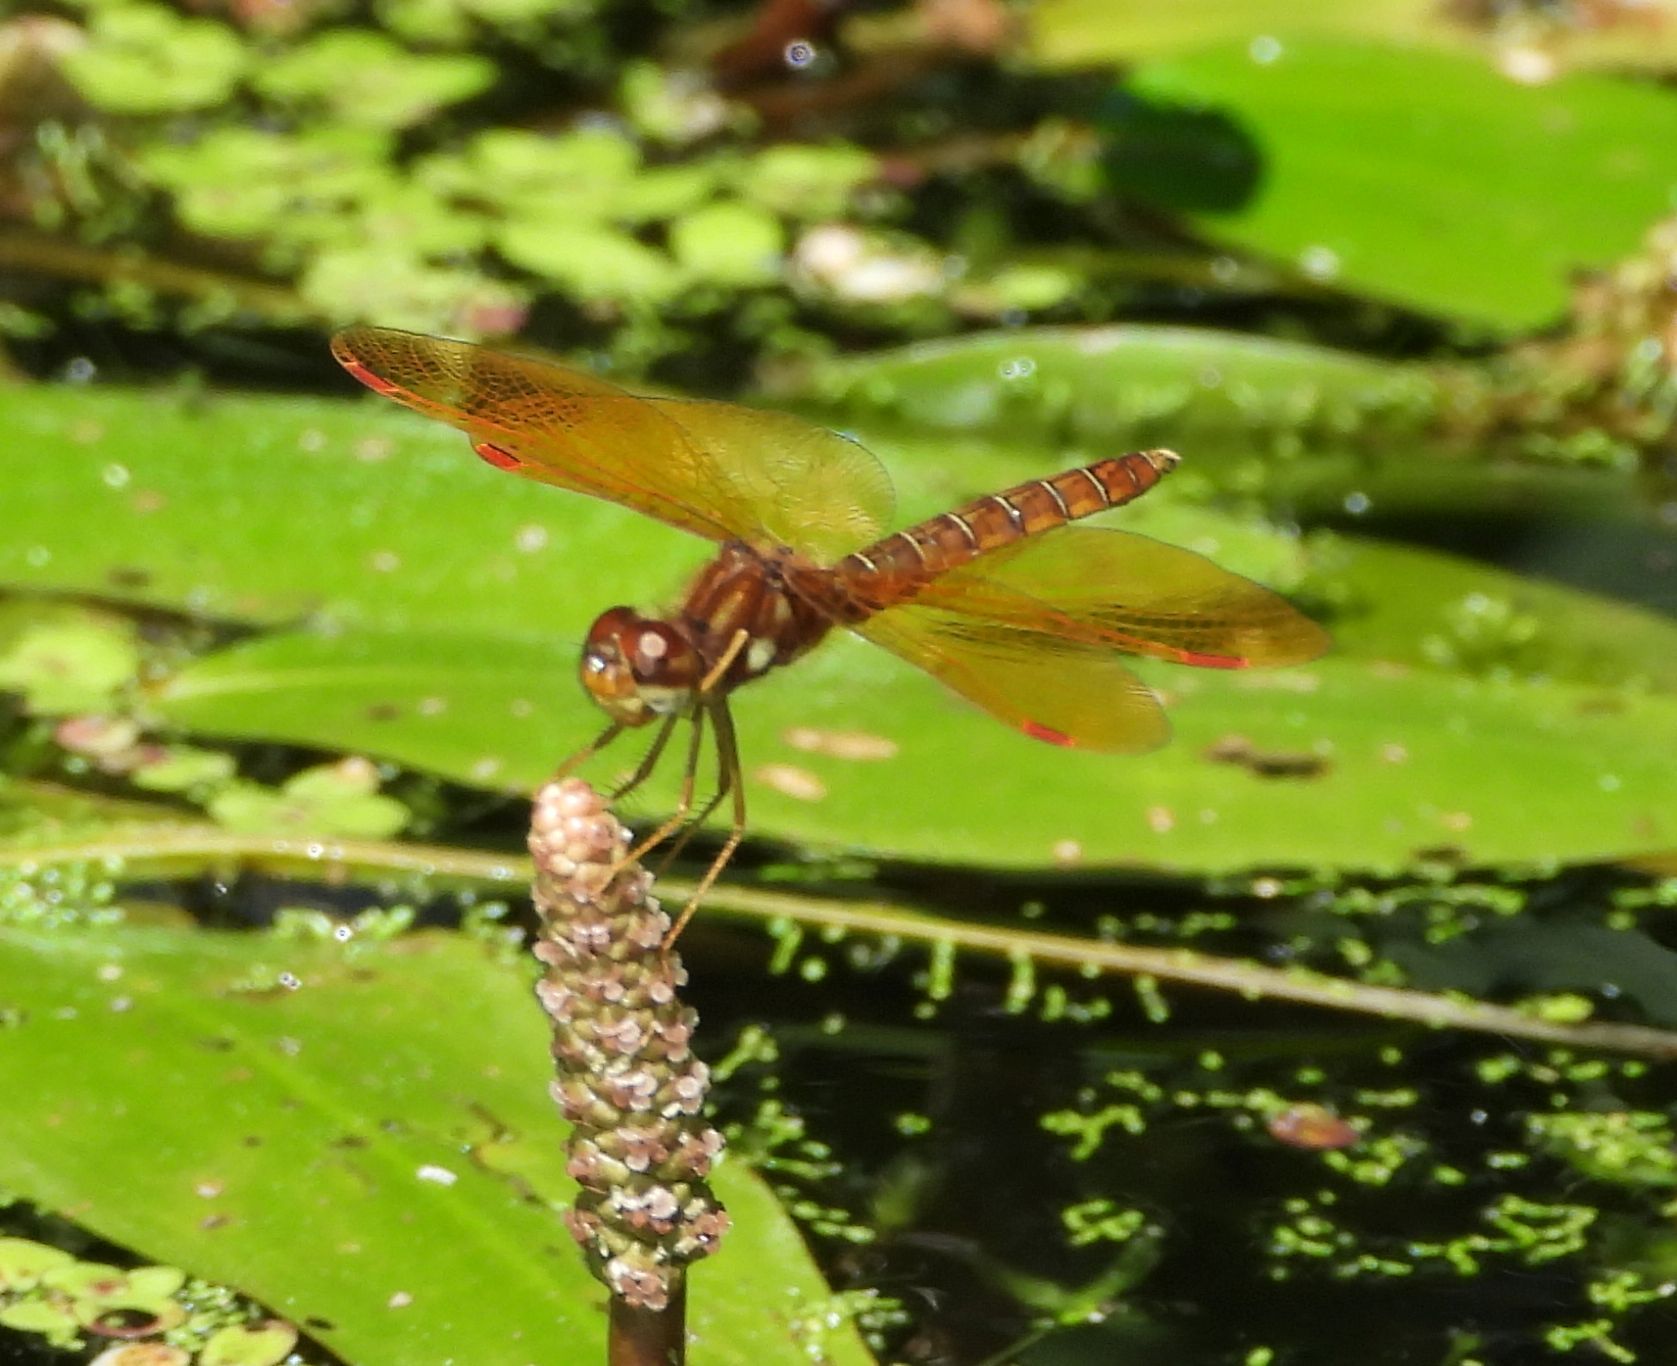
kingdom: Animalia
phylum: Arthropoda
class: Insecta
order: Odonata
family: Libellulidae
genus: Perithemis
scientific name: Perithemis tenera
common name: Eastern amberwing
